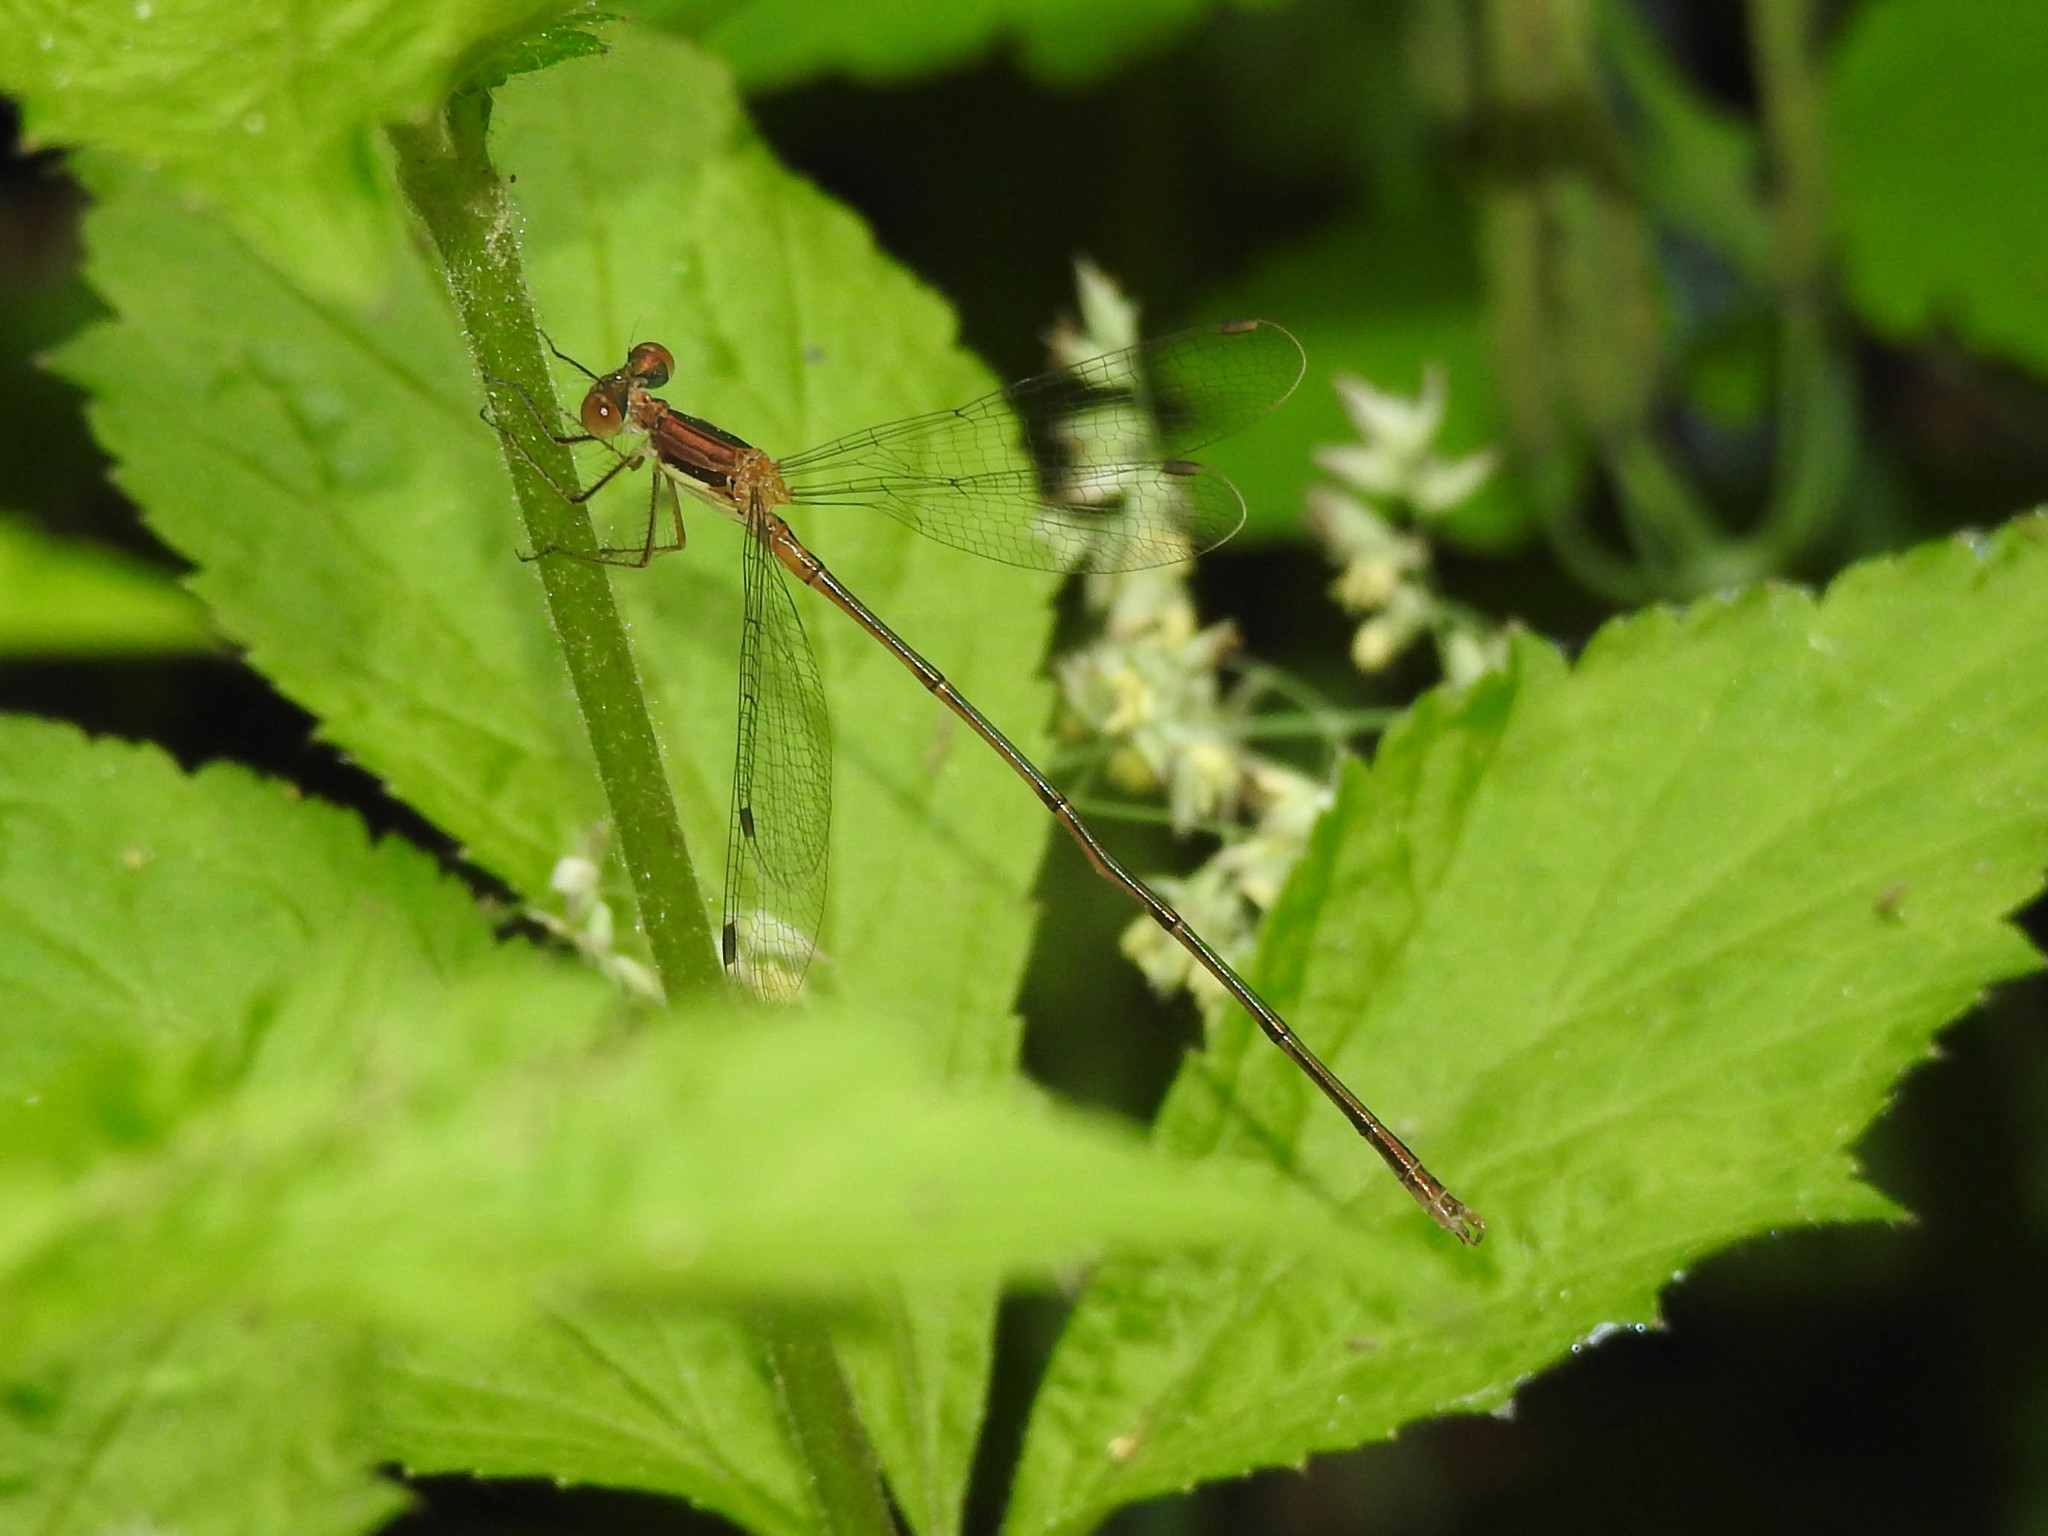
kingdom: Animalia
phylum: Arthropoda
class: Insecta
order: Odonata
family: Lestidae
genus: Lestes
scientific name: Lestes rectangularis
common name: Slender spreadwing
